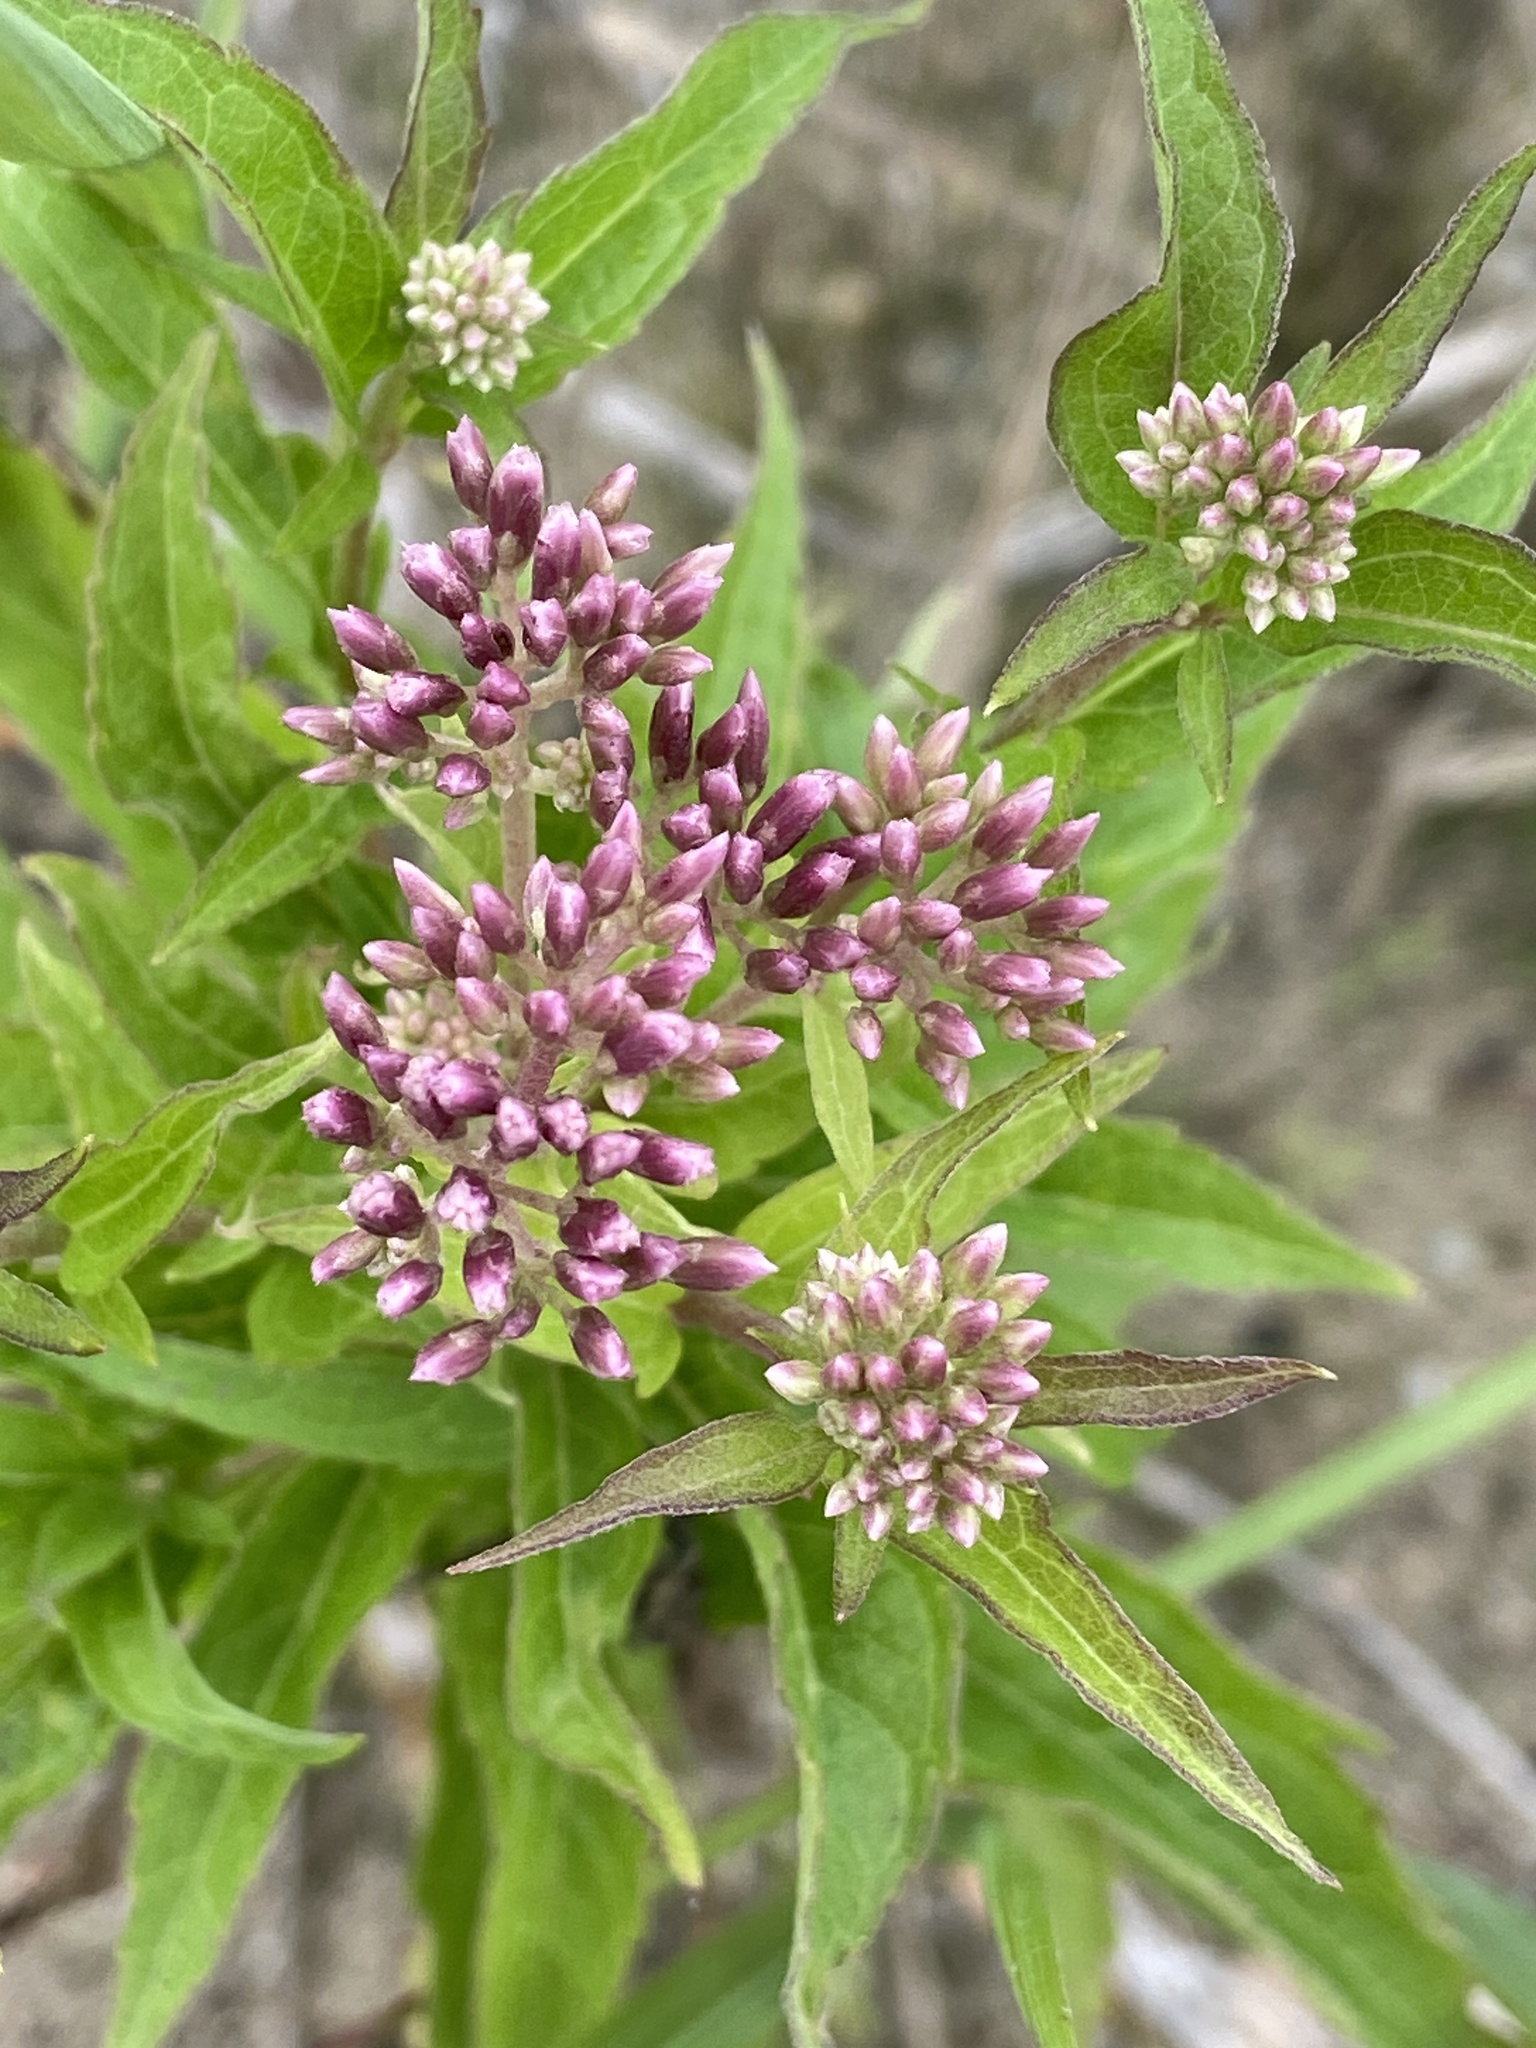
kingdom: Plantae
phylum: Tracheophyta
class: Magnoliopsida
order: Asterales
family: Asteraceae
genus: Eupatorium
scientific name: Eupatorium cannabinum
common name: Hemp-agrimony
